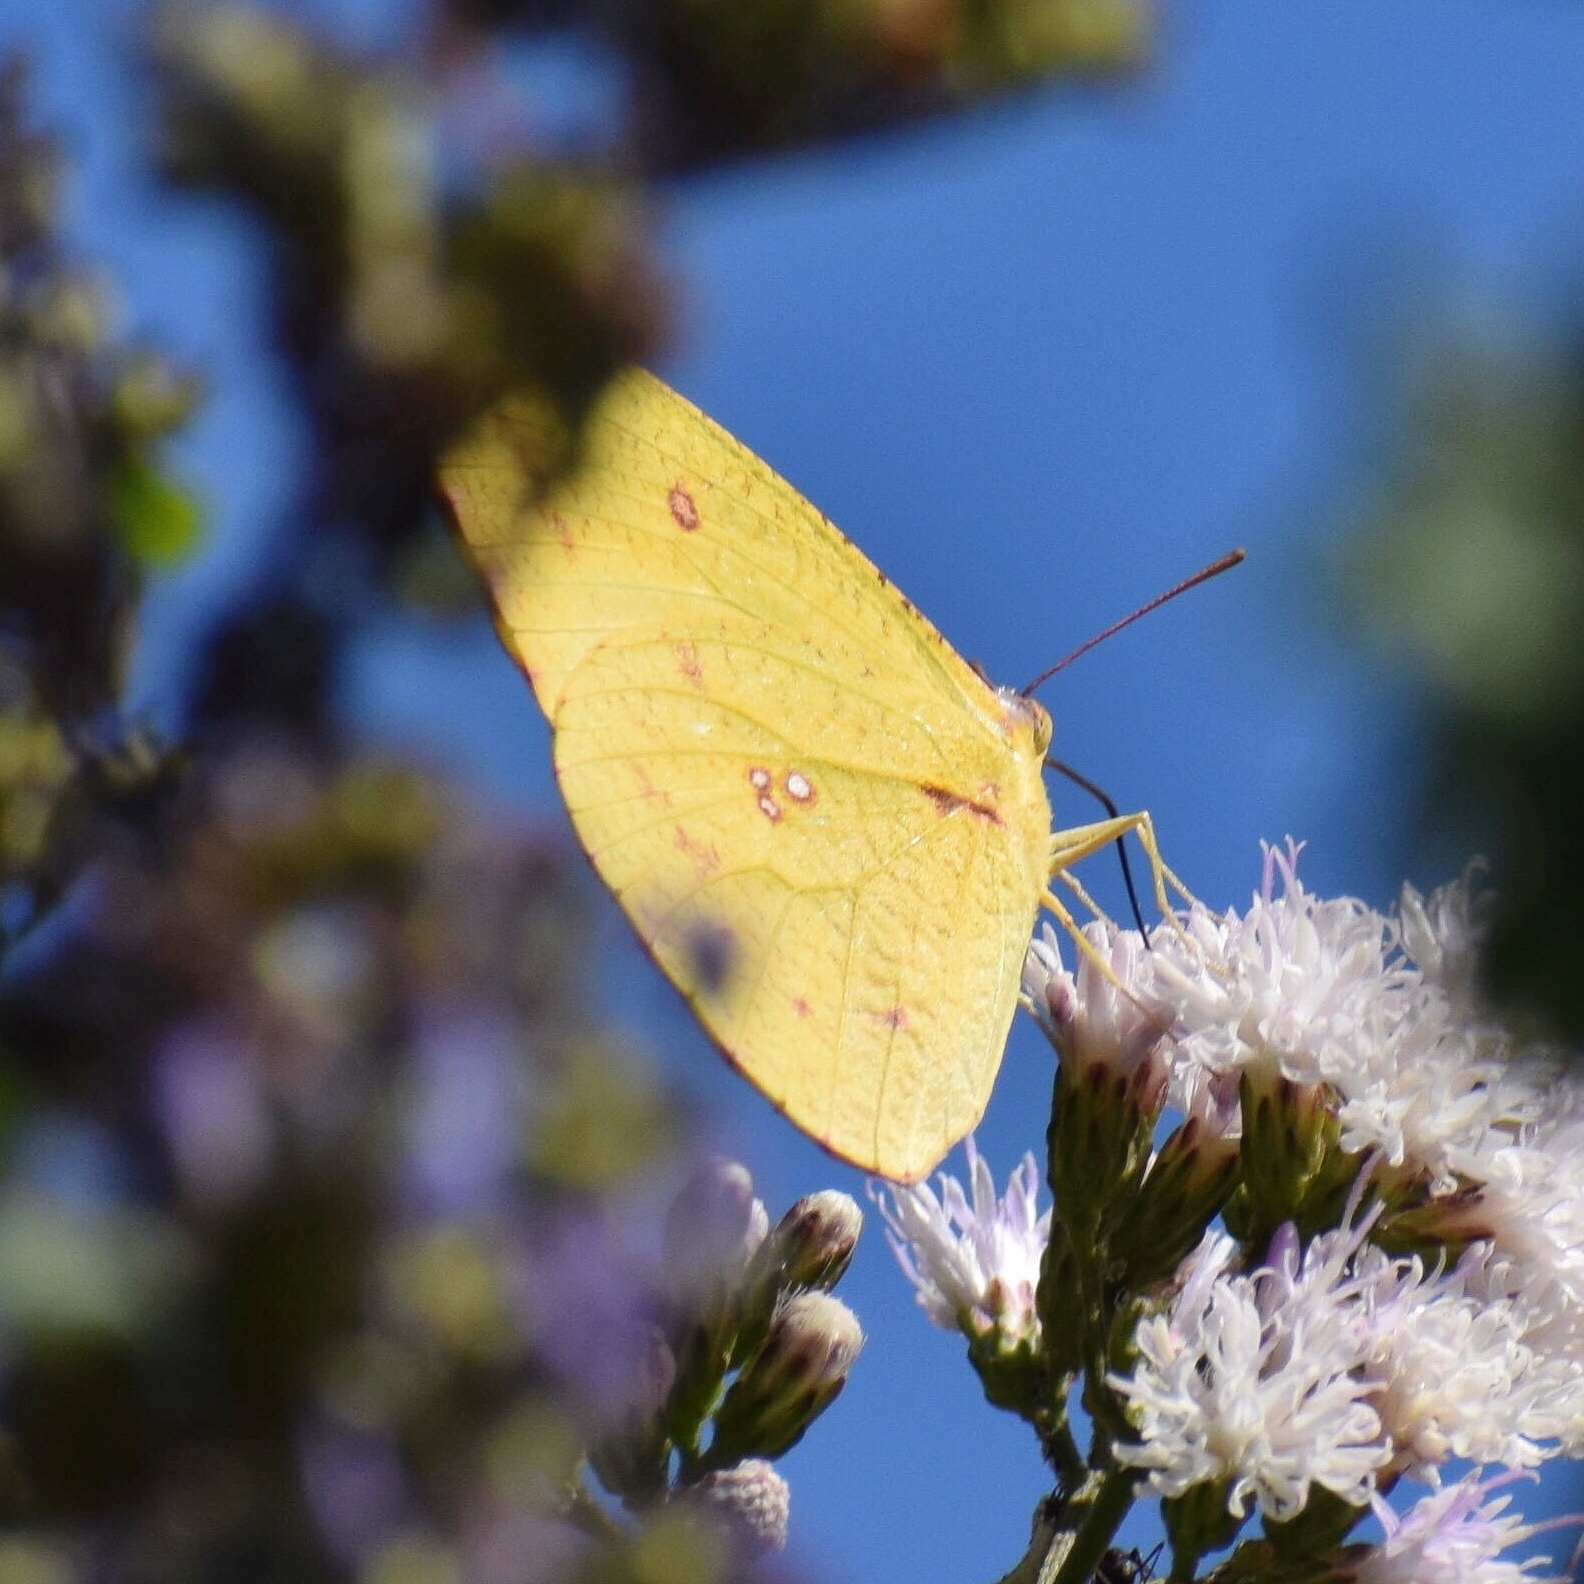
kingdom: Animalia
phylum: Arthropoda
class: Insecta
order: Lepidoptera
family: Pieridae
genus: Catopsilia
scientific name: Catopsilia florella
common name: African migrant
